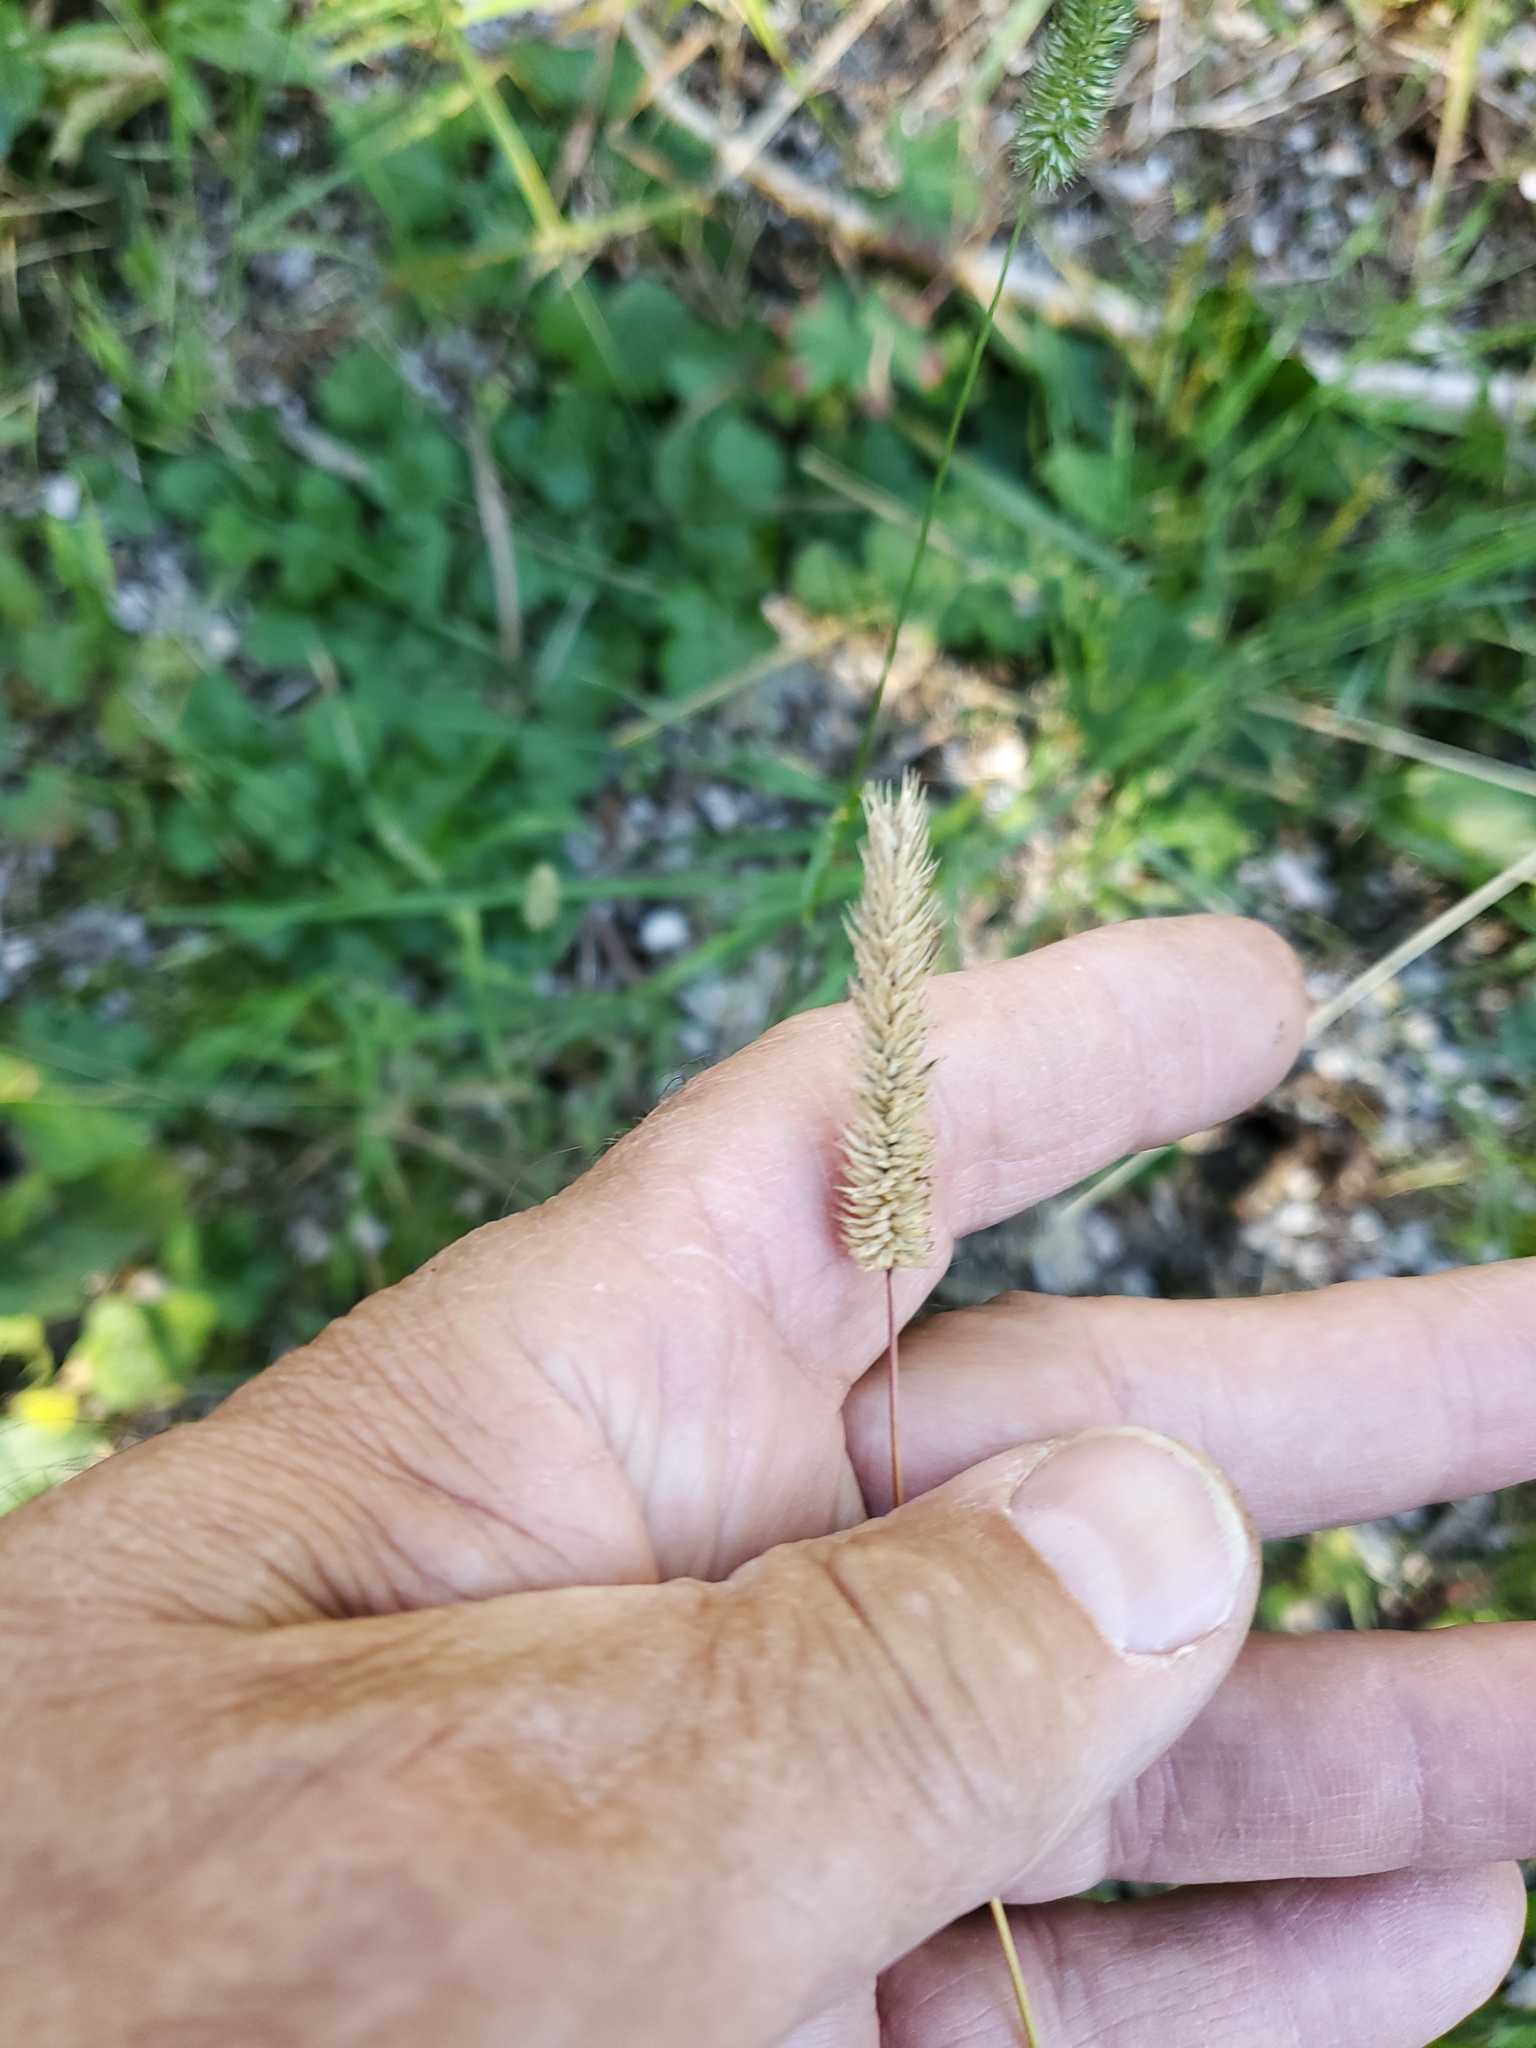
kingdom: Plantae
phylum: Tracheophyta
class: Liliopsida
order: Poales
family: Poaceae
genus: Phleum
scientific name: Phleum pratense
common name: Timothy grass
